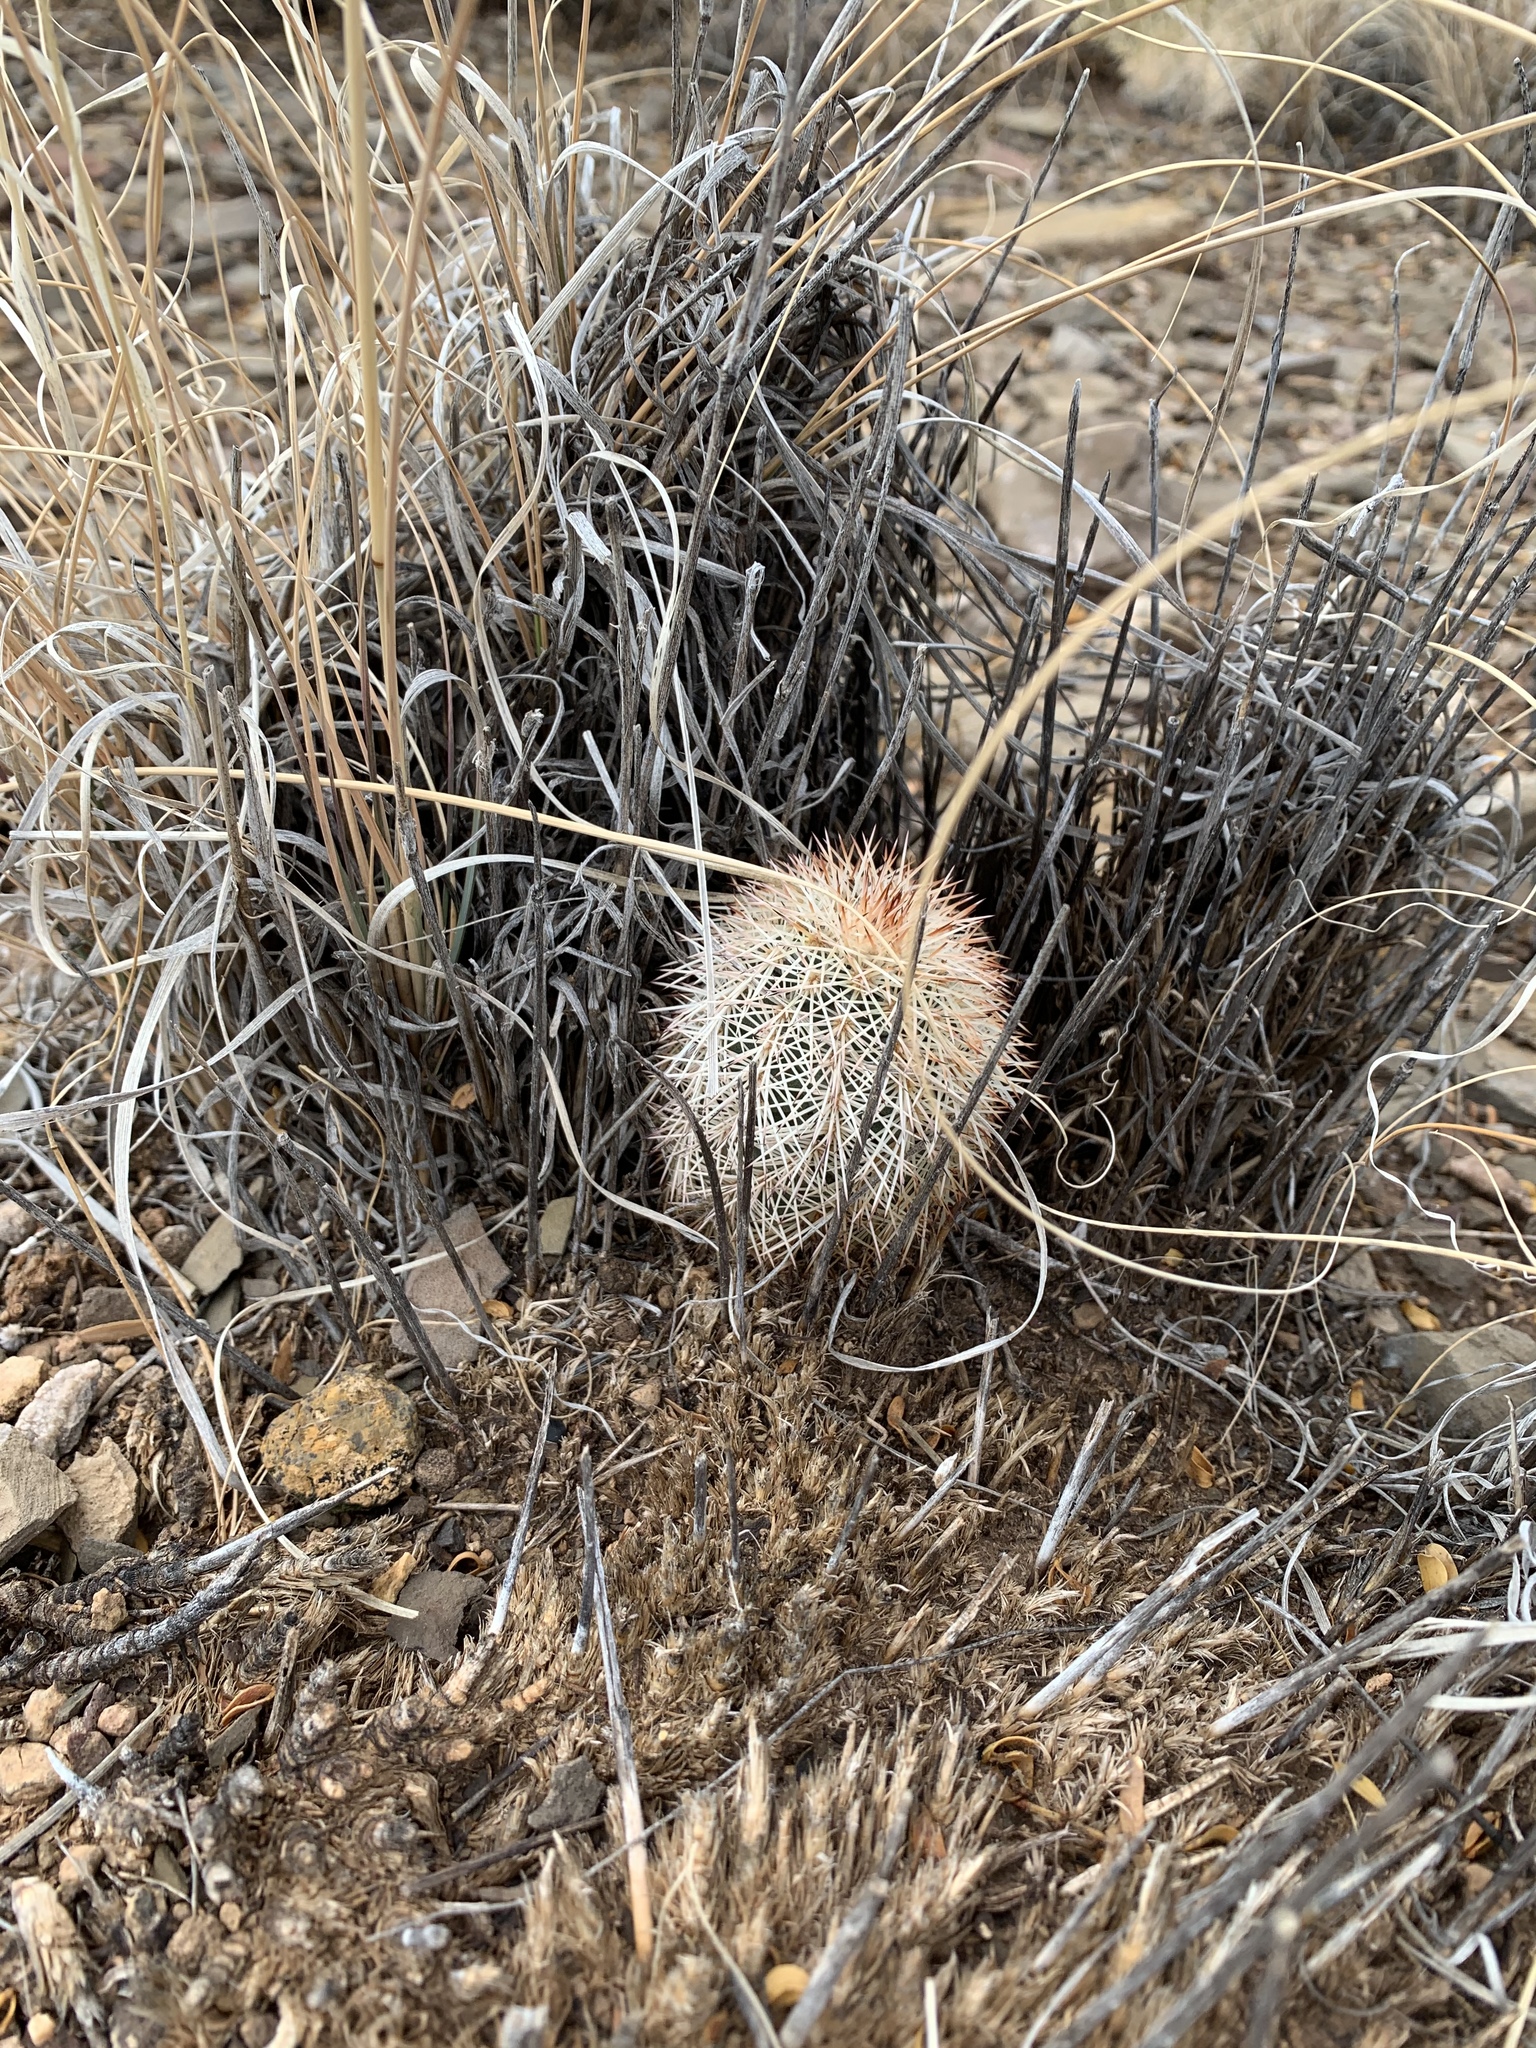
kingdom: Plantae
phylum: Tracheophyta
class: Magnoliopsida
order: Caryophyllales
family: Cactaceae
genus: Echinocereus
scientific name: Echinocereus dasyacanthus
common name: Spiny hedgehog cactus
